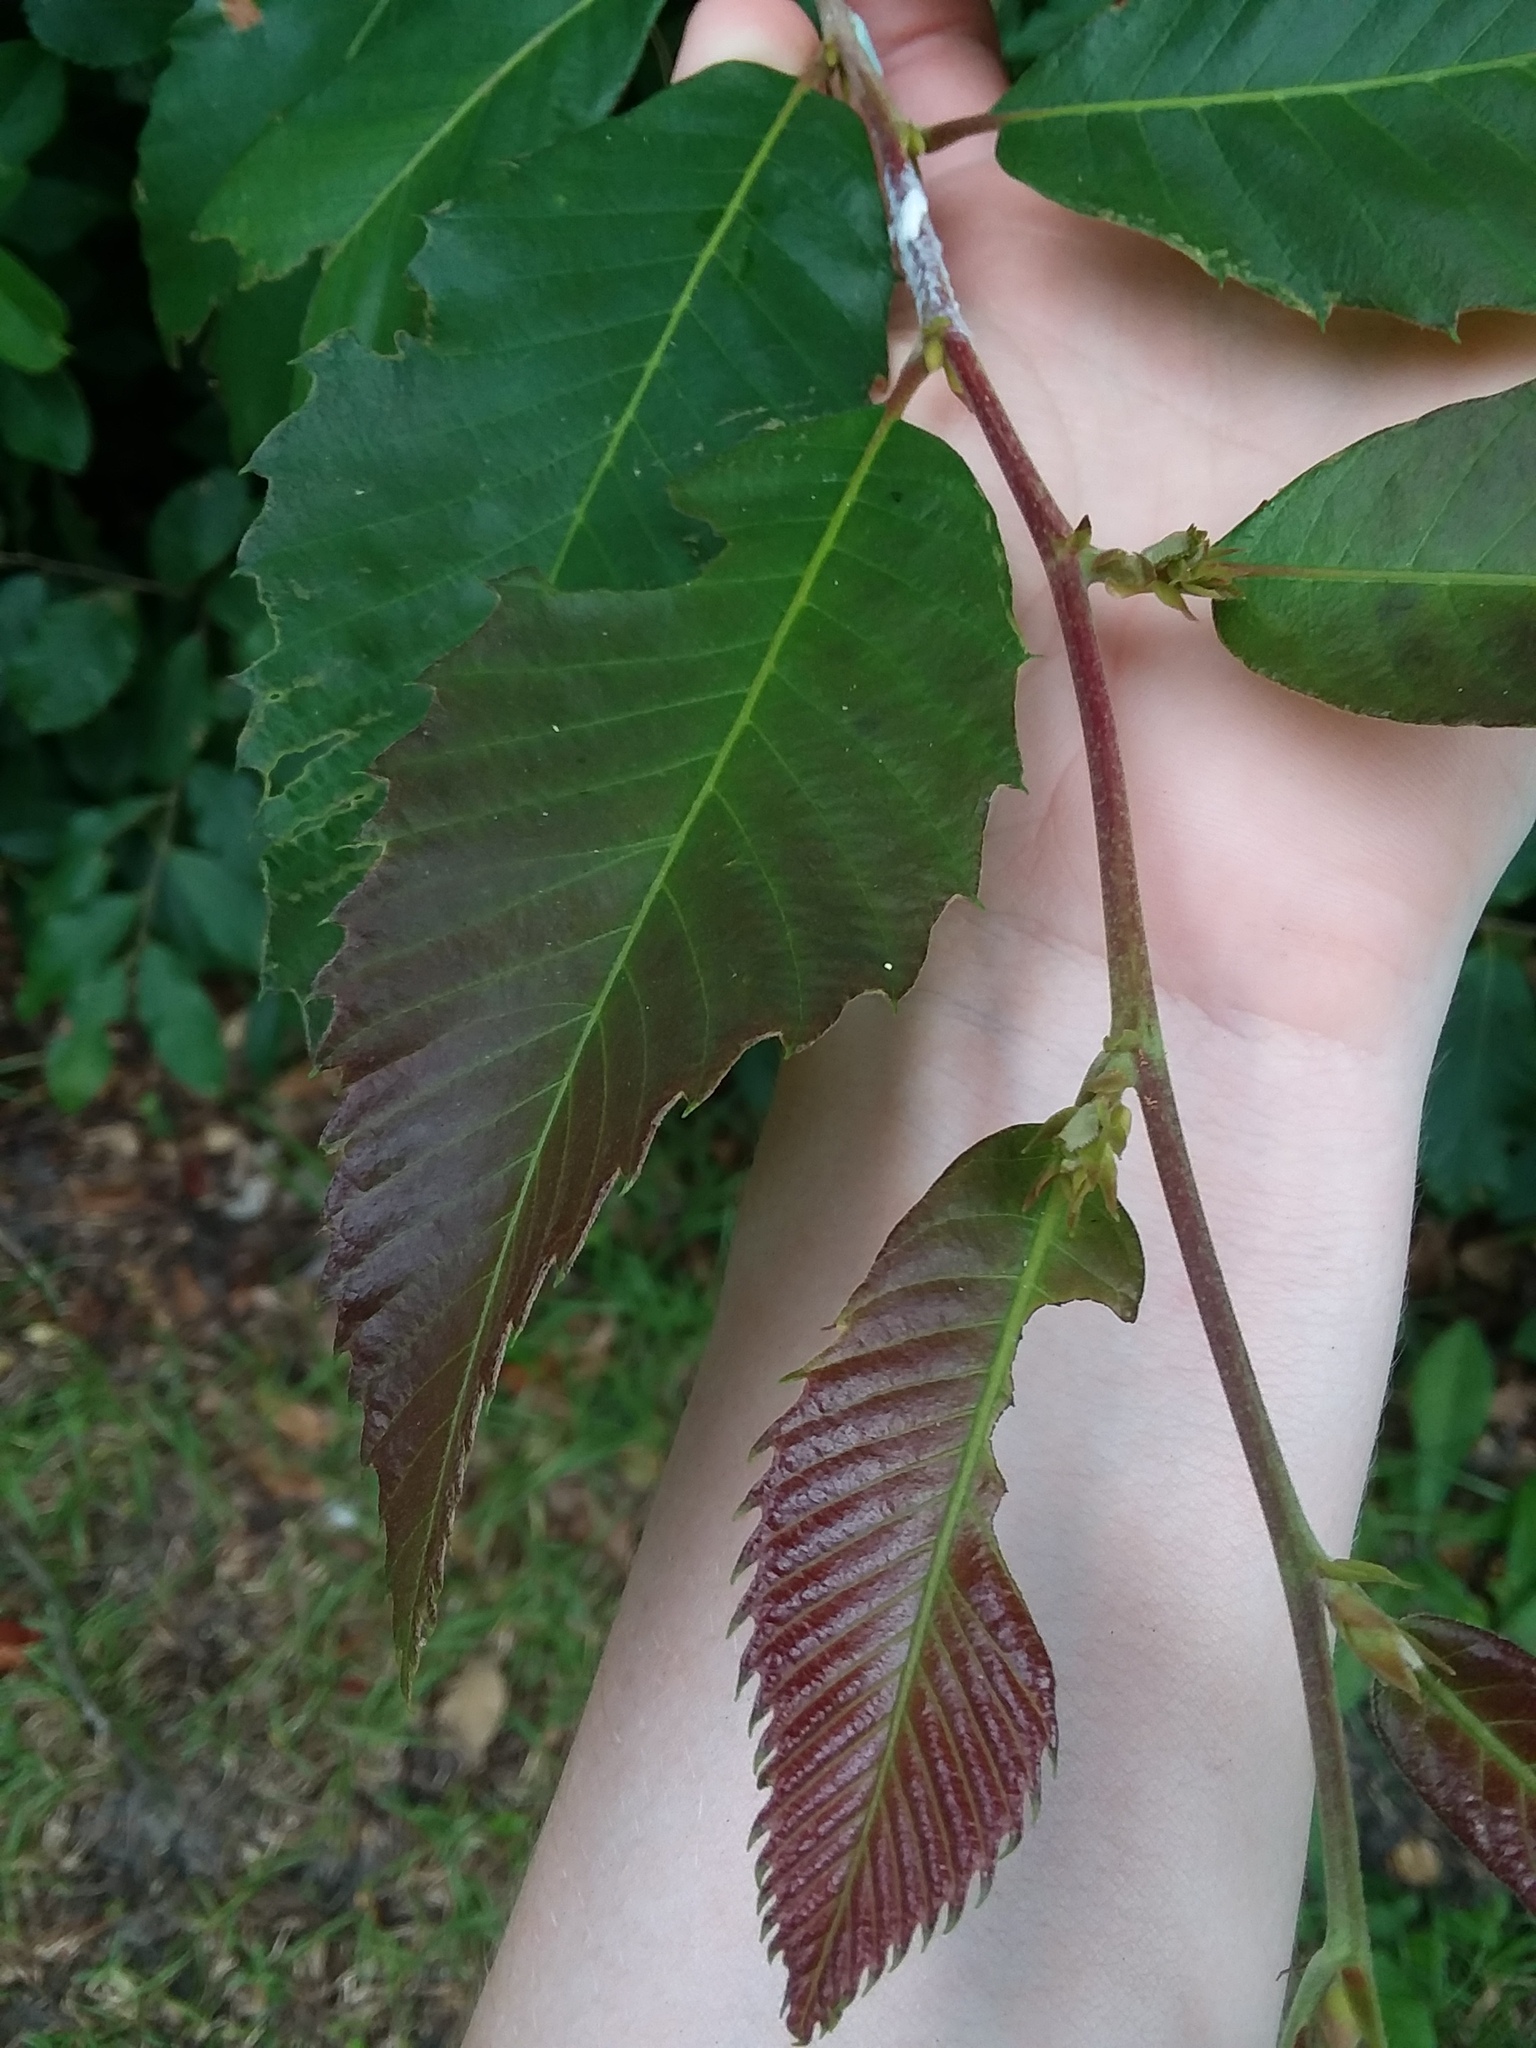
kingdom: Plantae
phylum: Tracheophyta
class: Magnoliopsida
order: Fagales
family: Fagaceae
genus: Castanea
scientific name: Castanea pumila
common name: Chinkapin
